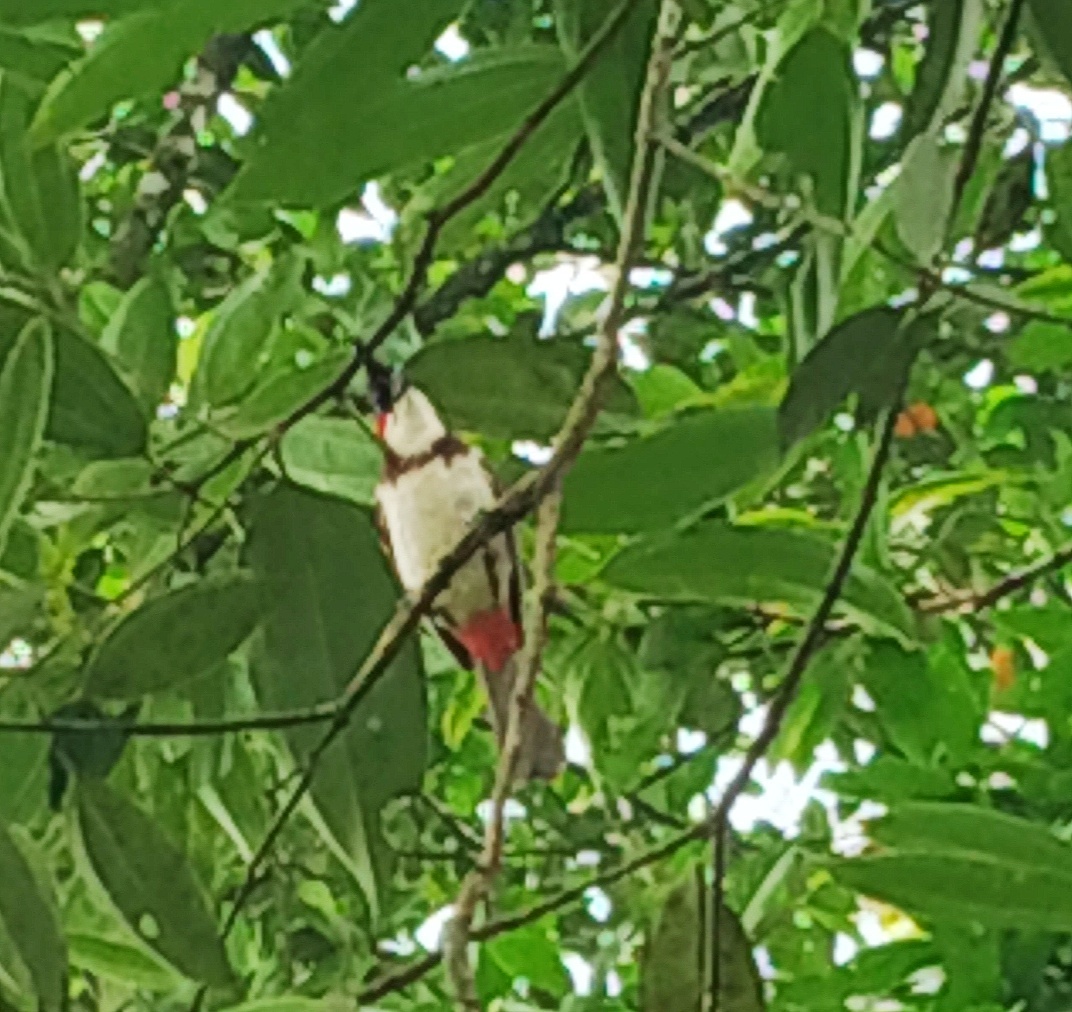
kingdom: Animalia
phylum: Chordata
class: Aves
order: Passeriformes
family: Pycnonotidae
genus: Pycnonotus
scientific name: Pycnonotus jocosus
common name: Red-whiskered bulbul
